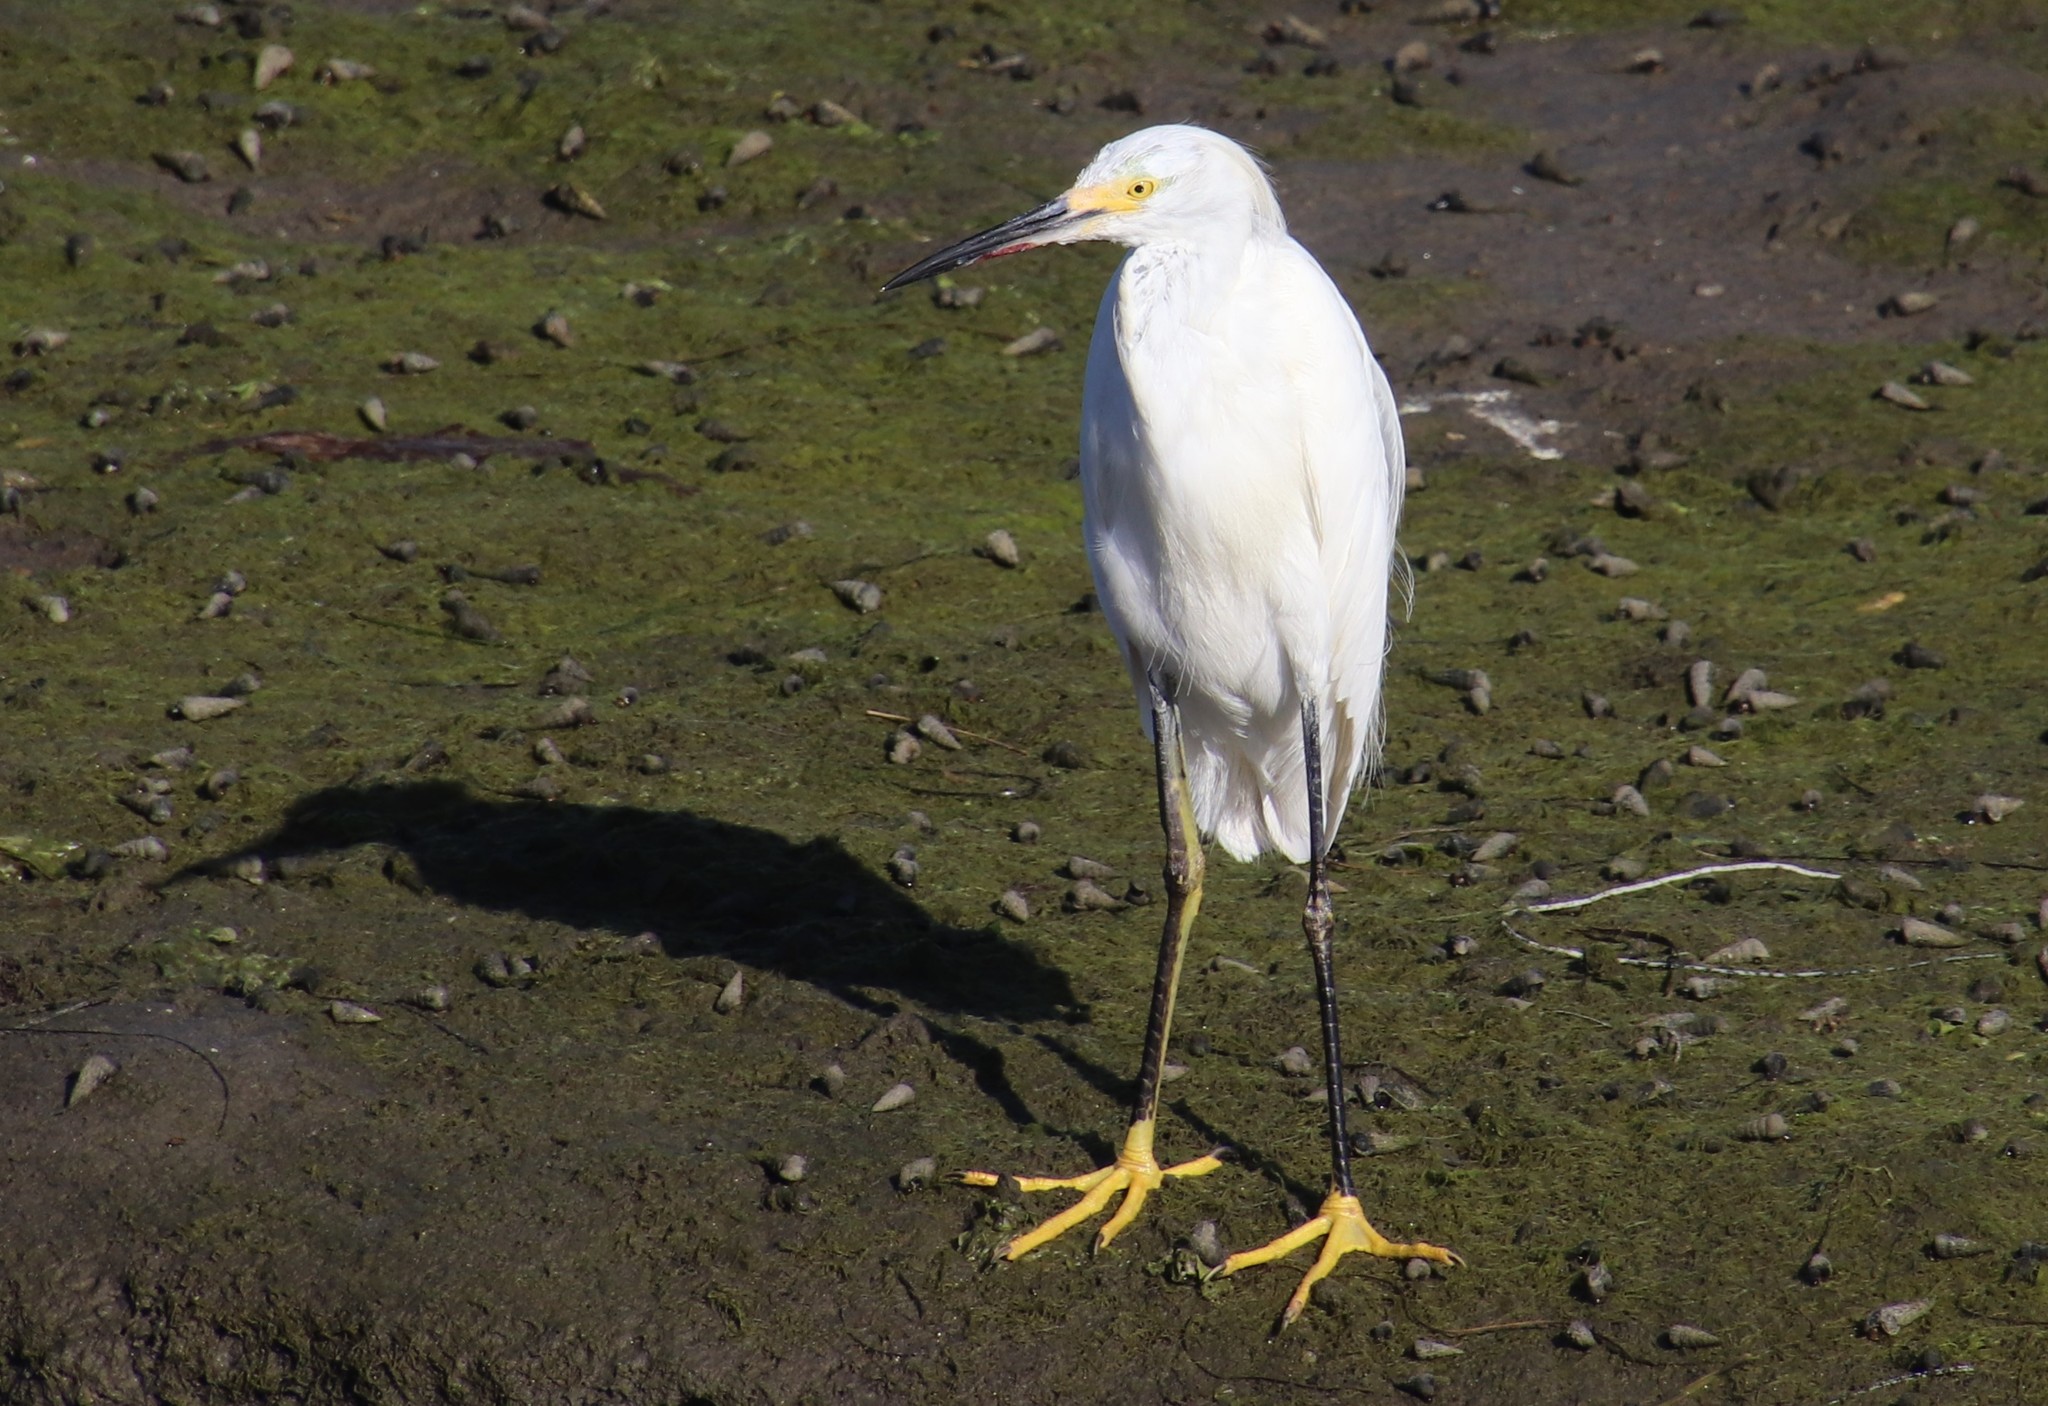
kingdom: Animalia
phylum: Chordata
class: Aves
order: Pelecaniformes
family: Ardeidae
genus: Egretta
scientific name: Egretta thula
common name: Snowy egret
